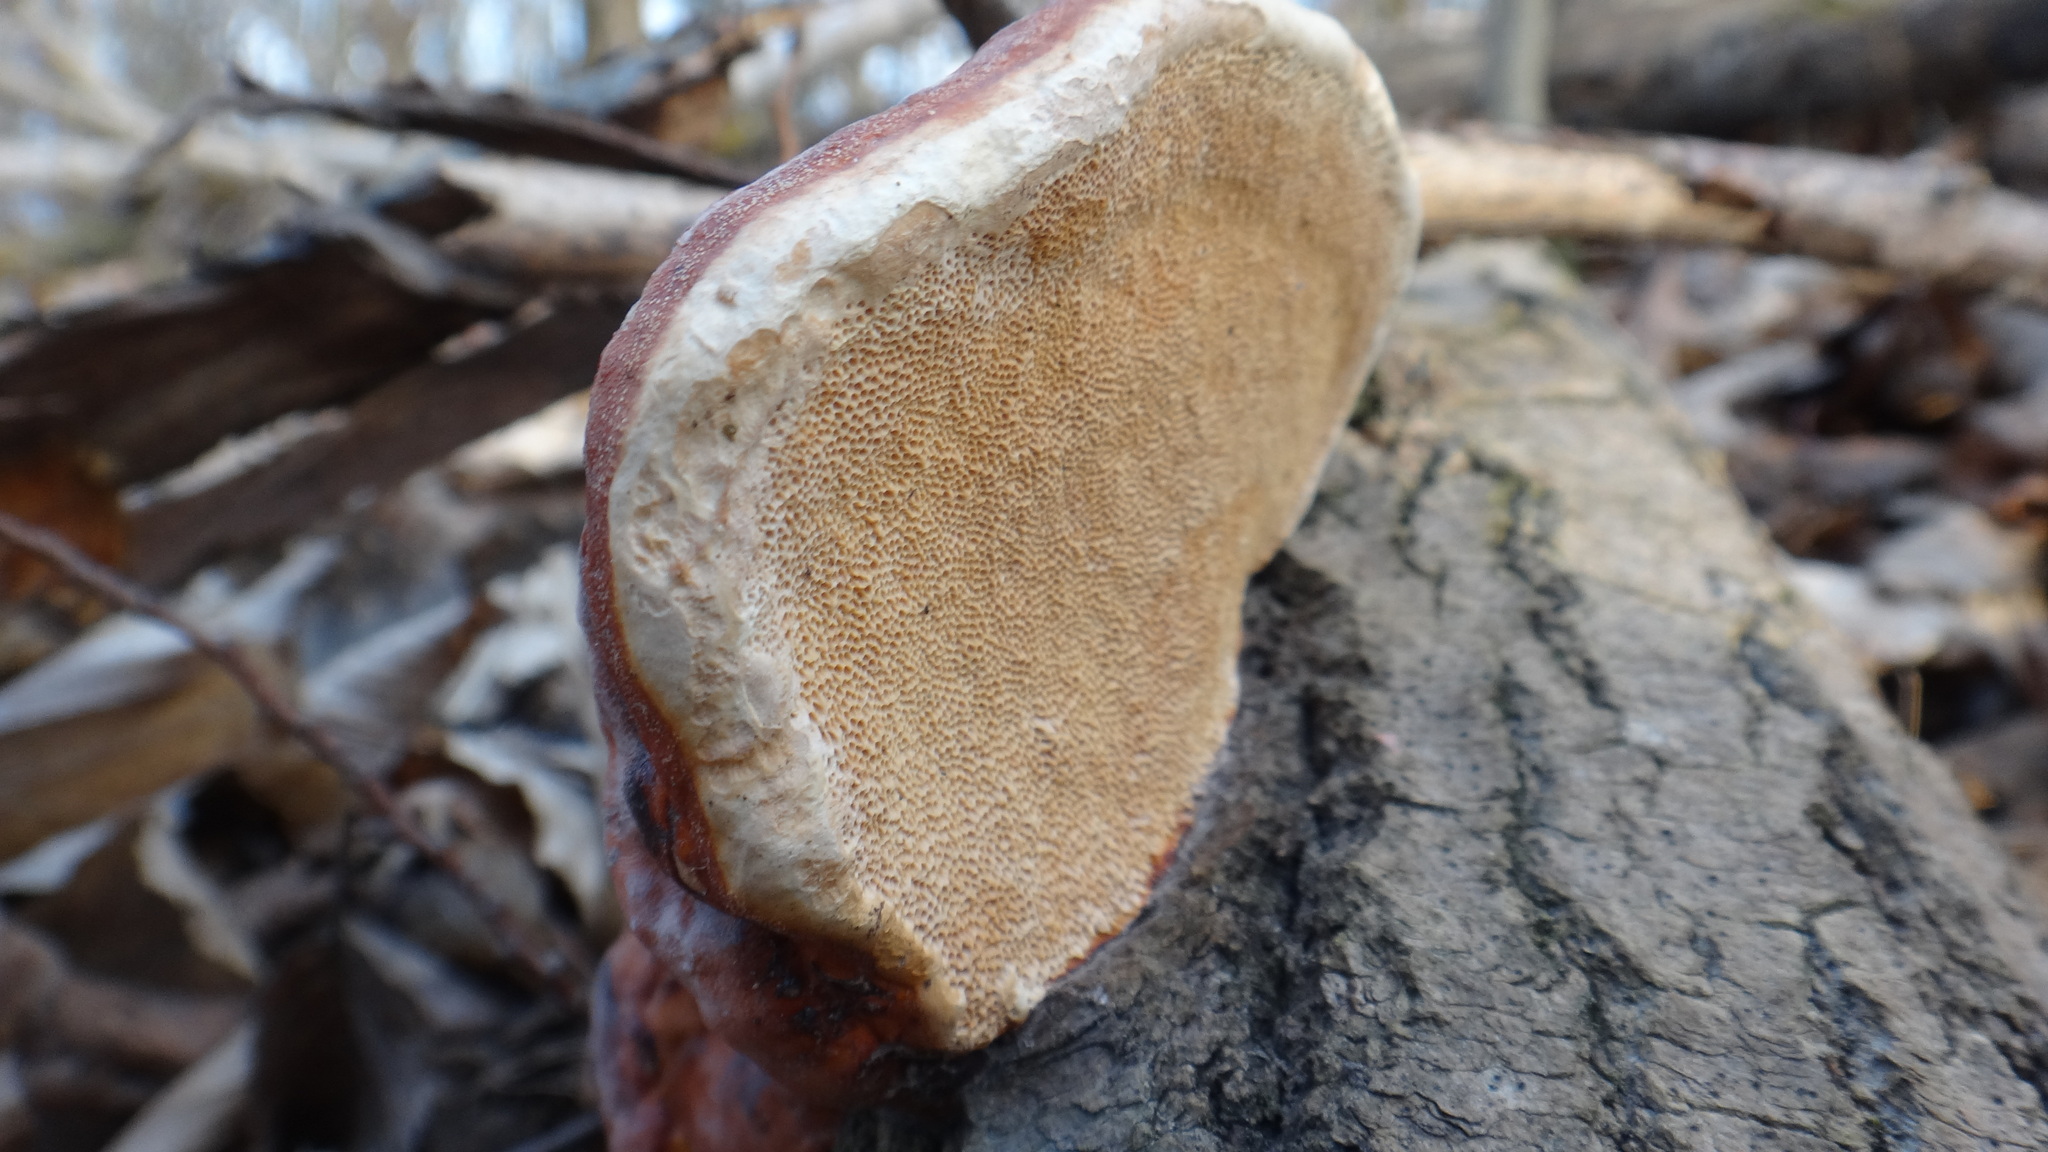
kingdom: Fungi
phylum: Basidiomycota
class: Agaricomycetes
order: Polyporales
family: Fomitopsidaceae
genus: Fomitopsis
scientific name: Fomitopsis pinicola
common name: Red-belted bracket
